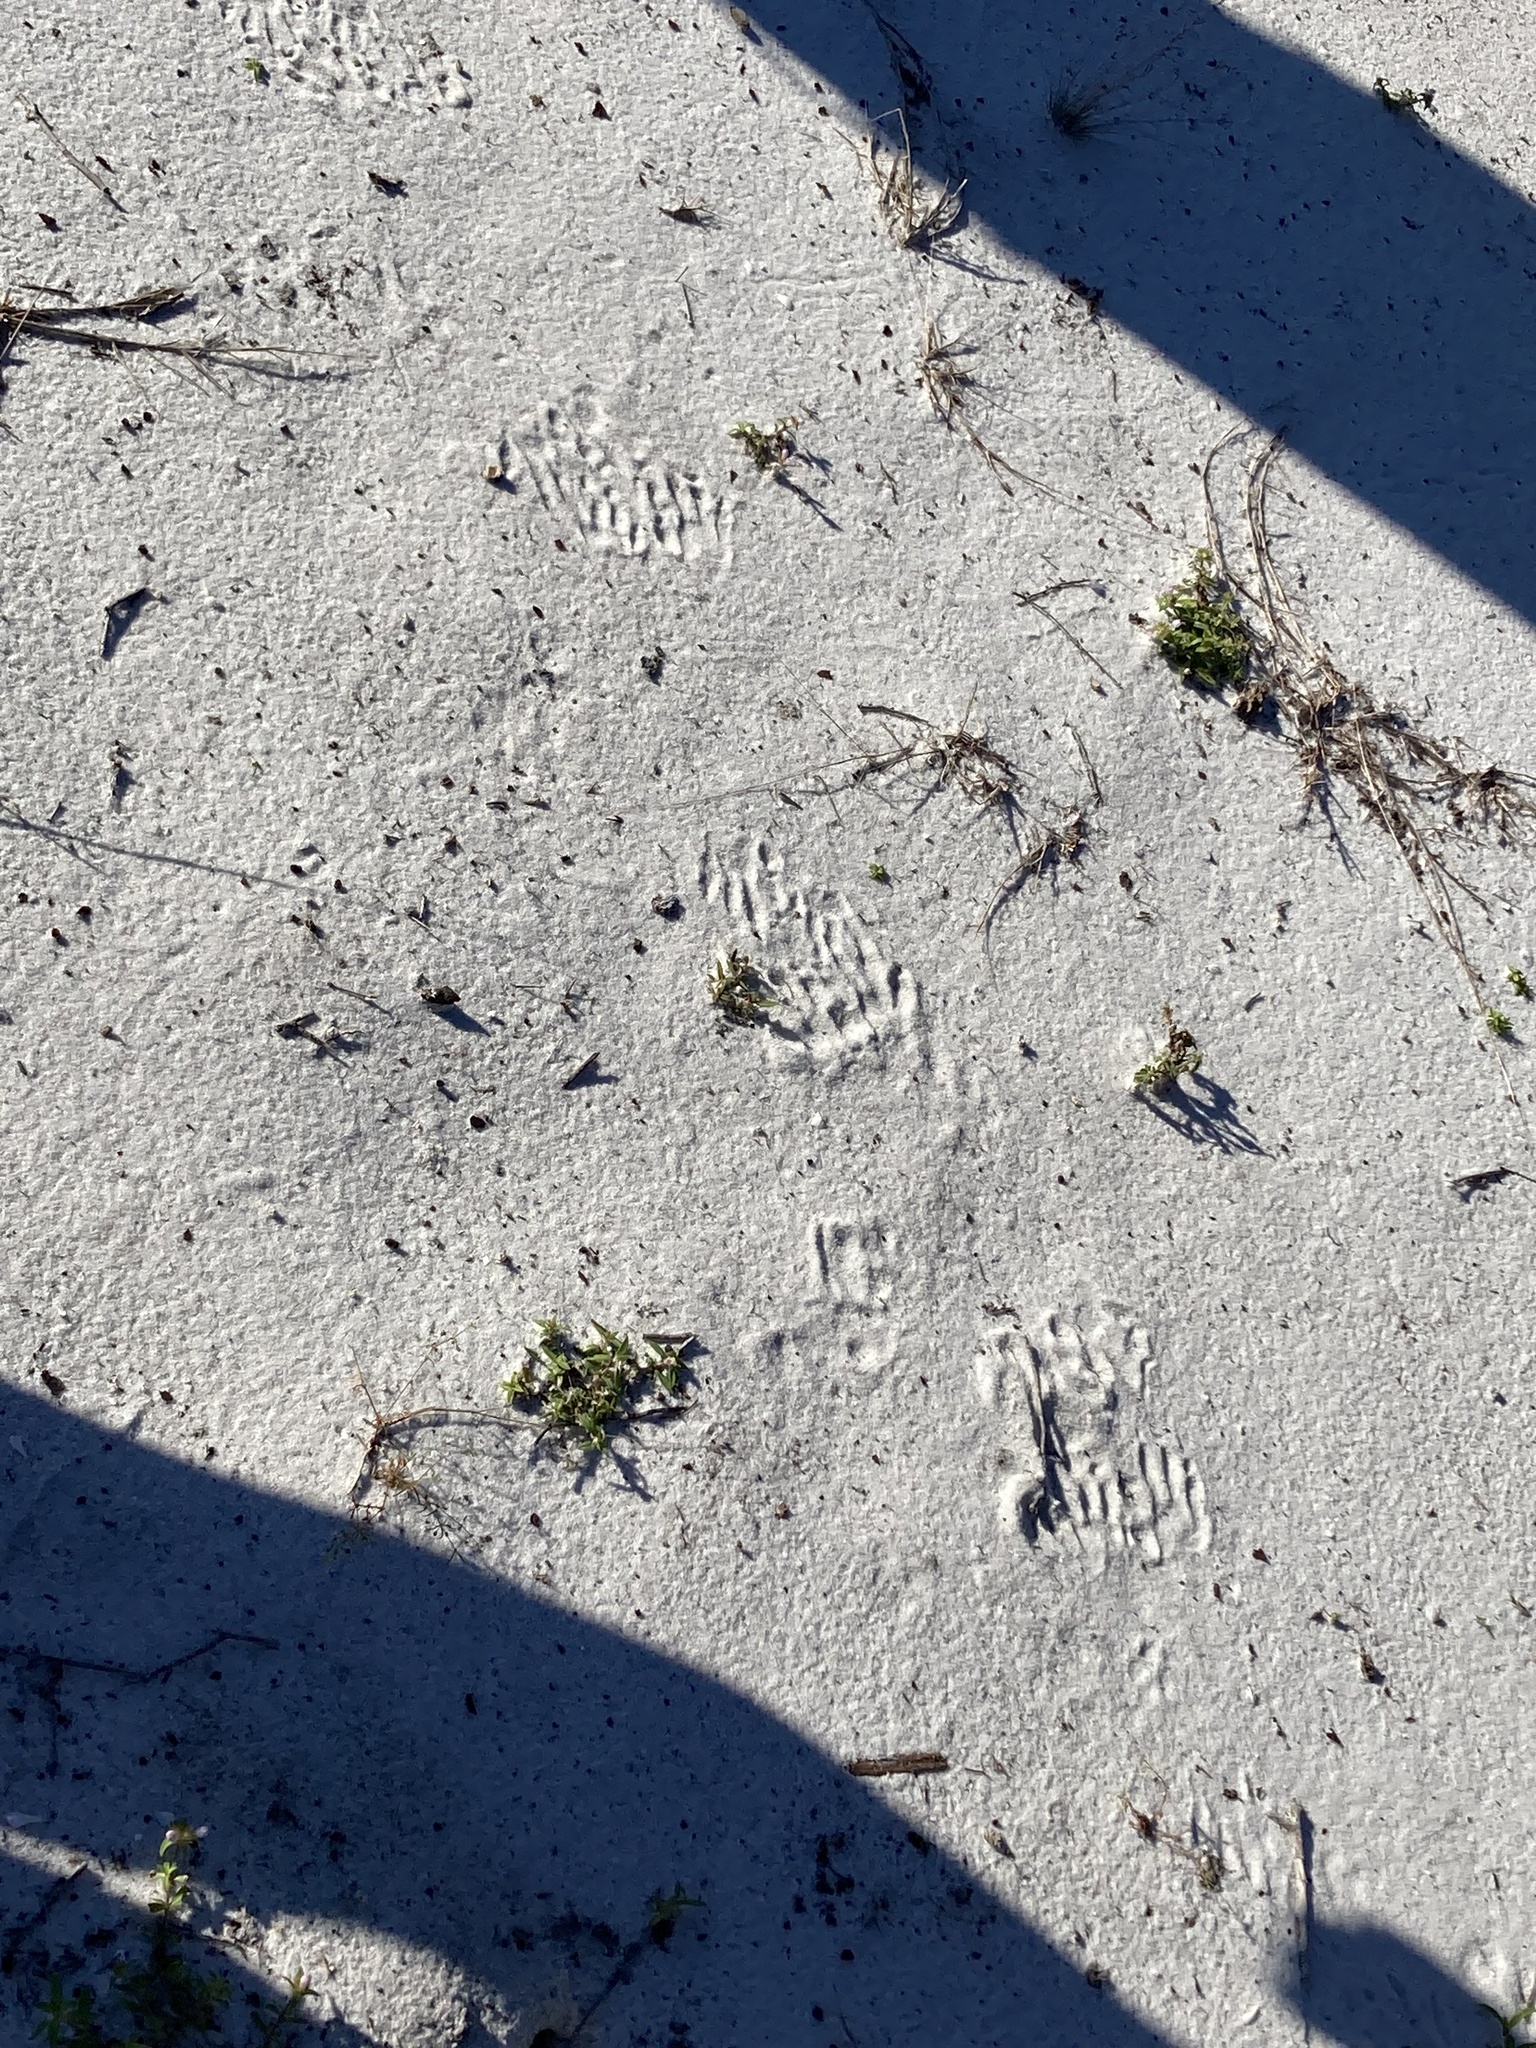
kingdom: Animalia
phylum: Chordata
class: Mammalia
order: Carnivora
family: Procyonidae
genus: Procyon
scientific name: Procyon lotor
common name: Raccoon
